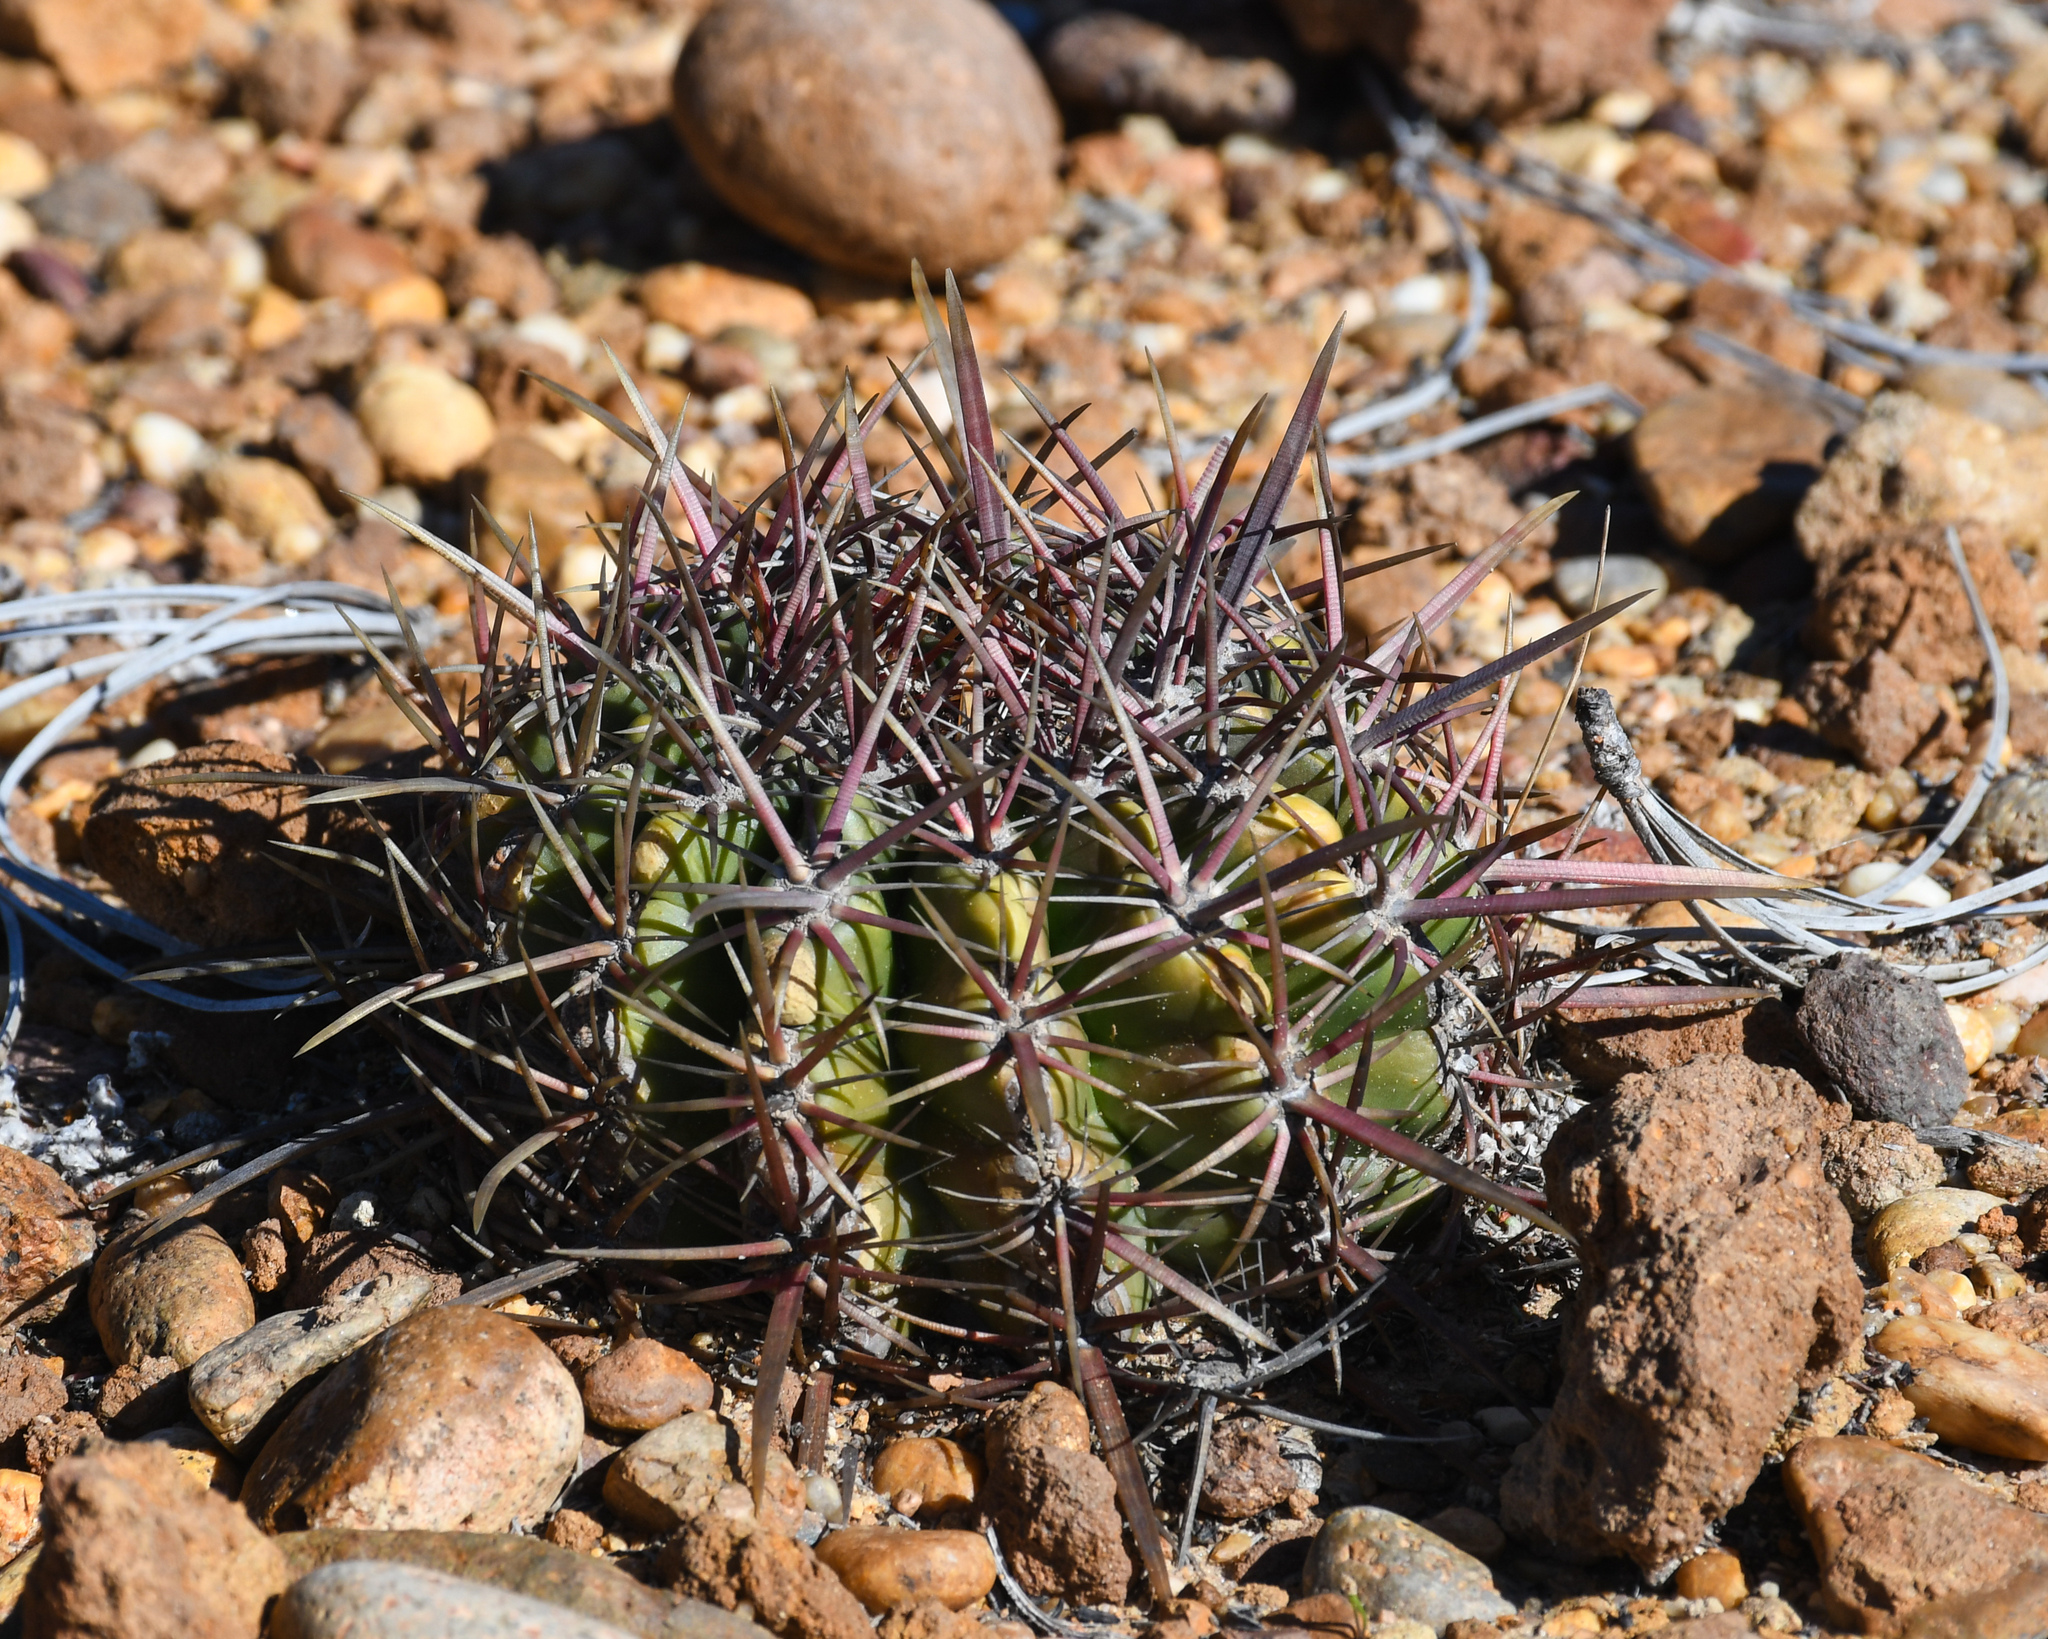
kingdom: Plantae
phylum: Tracheophyta
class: Magnoliopsida
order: Caryophyllales
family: Cactaceae
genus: Ferocactus
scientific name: Ferocactus viridescens
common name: San diego barrel cactus
